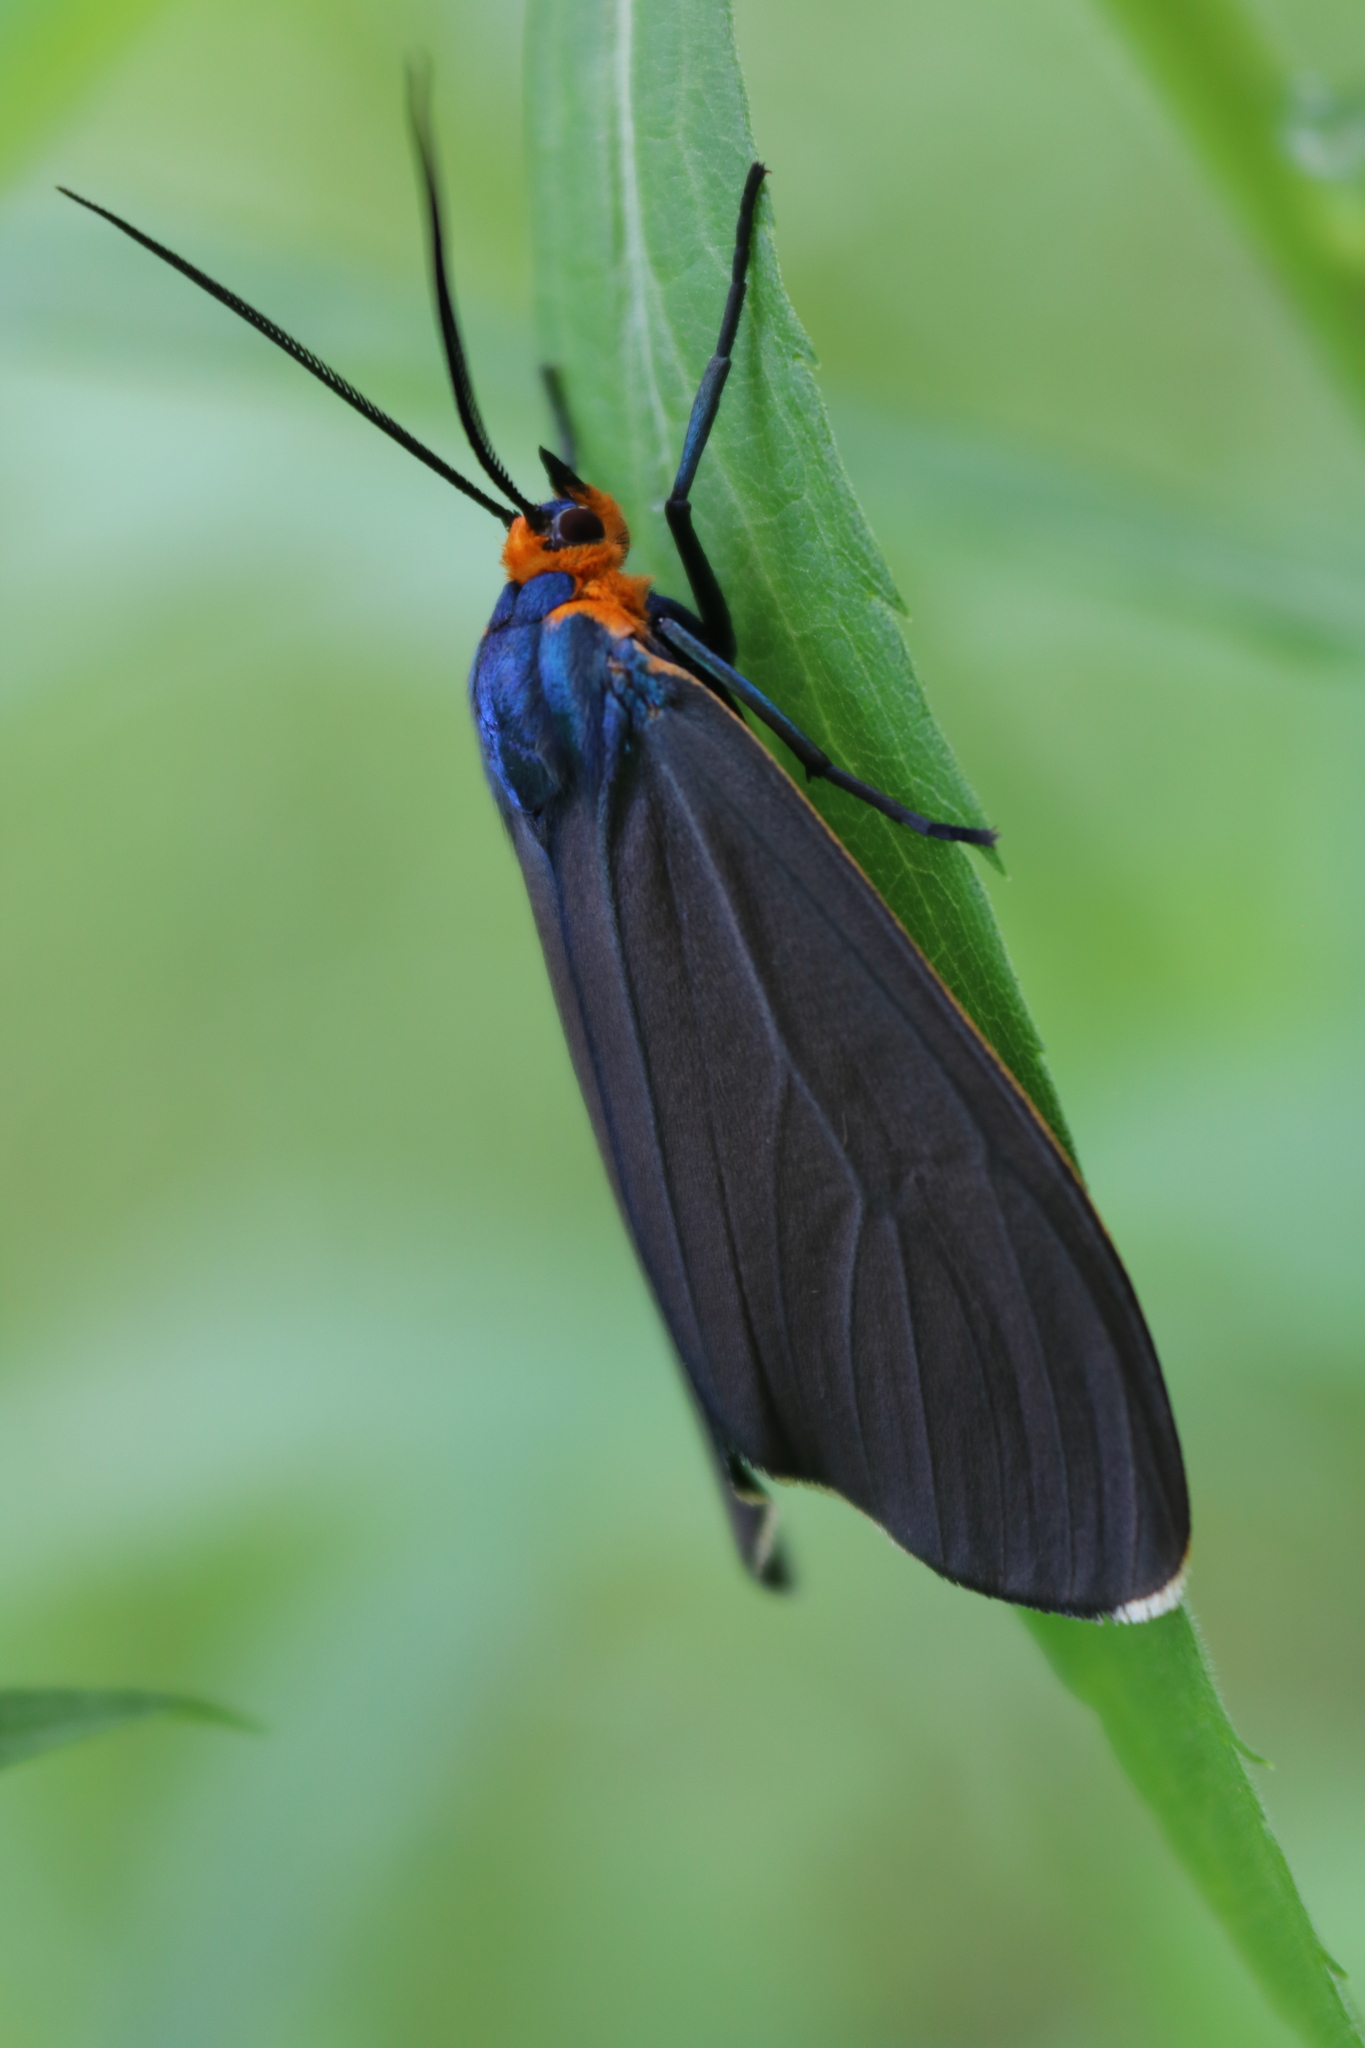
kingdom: Animalia
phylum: Arthropoda
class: Insecta
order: Lepidoptera
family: Erebidae
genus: Ctenucha
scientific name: Ctenucha virginica
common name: Virginia ctenucha moth
